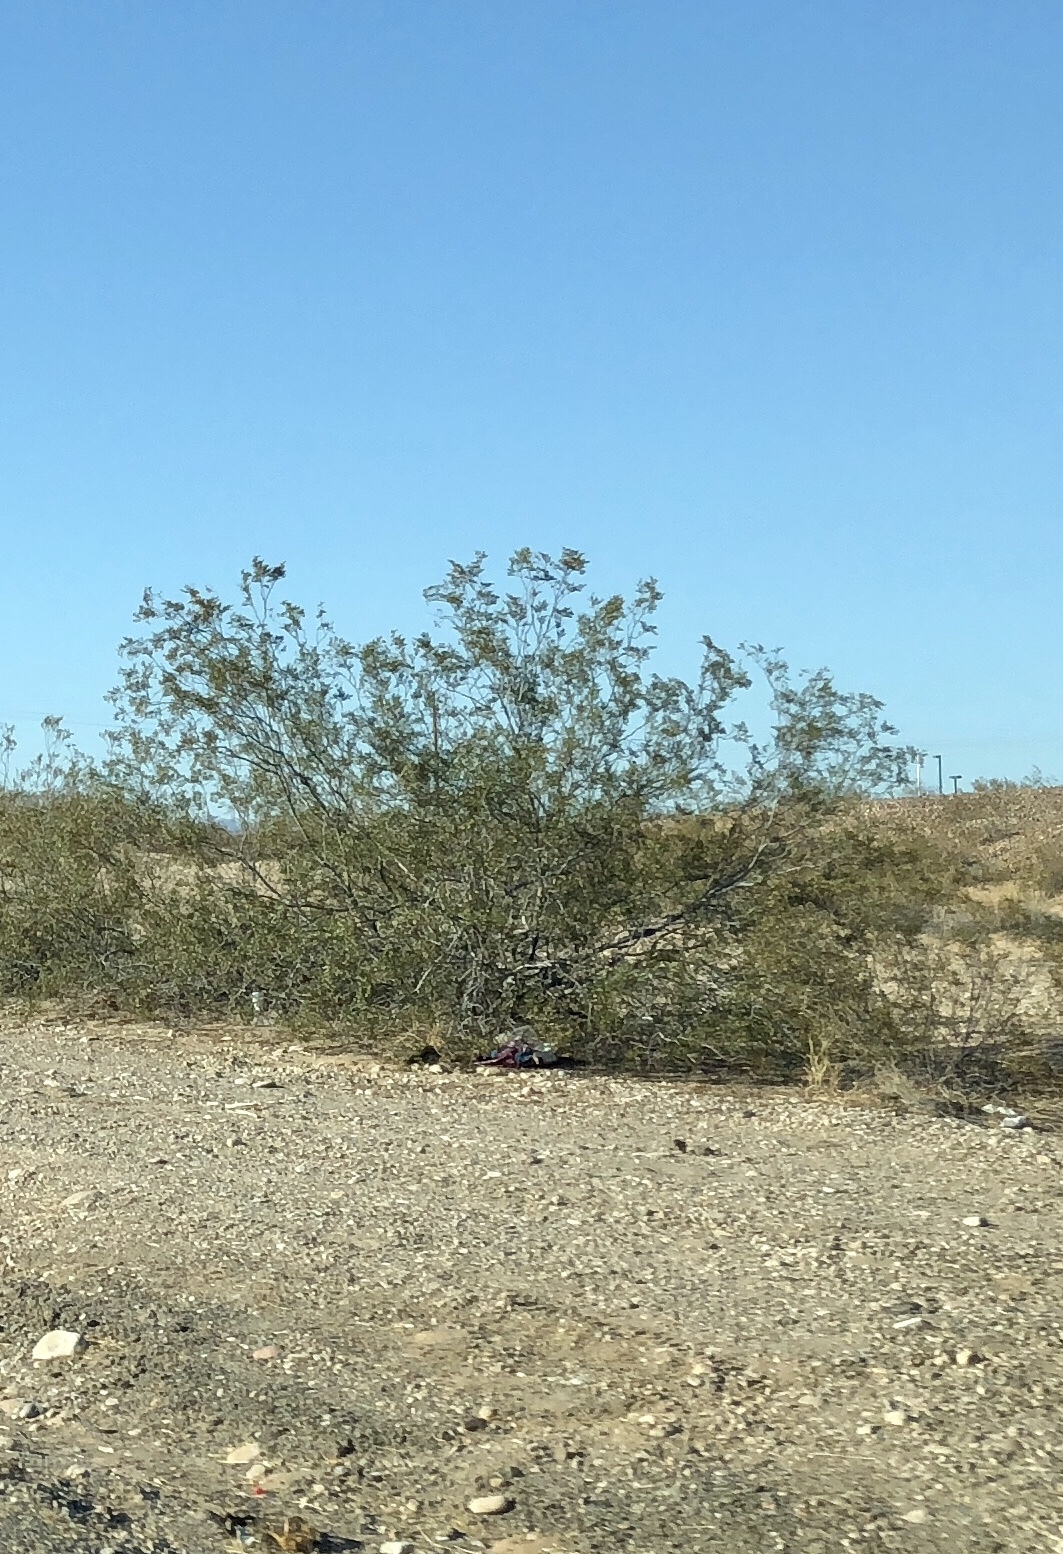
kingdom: Plantae
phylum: Tracheophyta
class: Magnoliopsida
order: Zygophyllales
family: Zygophyllaceae
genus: Larrea
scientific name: Larrea tridentata
